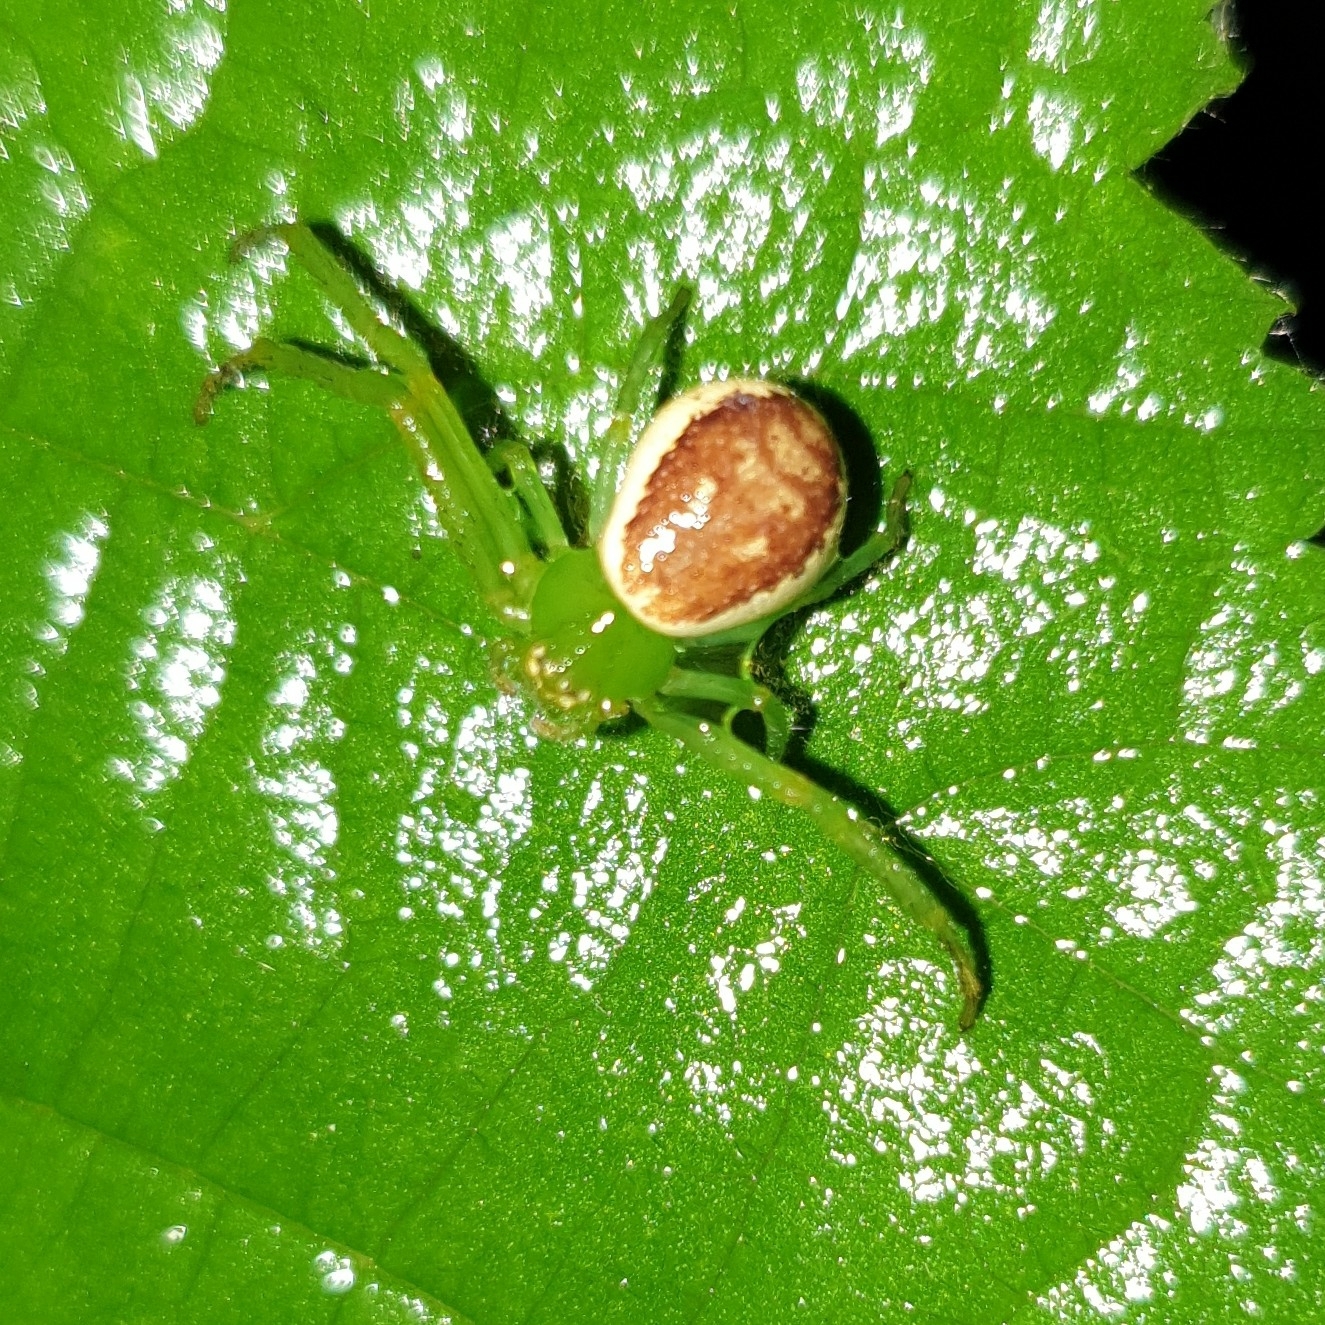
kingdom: Animalia
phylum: Arthropoda
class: Arachnida
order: Araneae
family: Thomisidae
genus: Diaea
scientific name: Diaea dorsata
